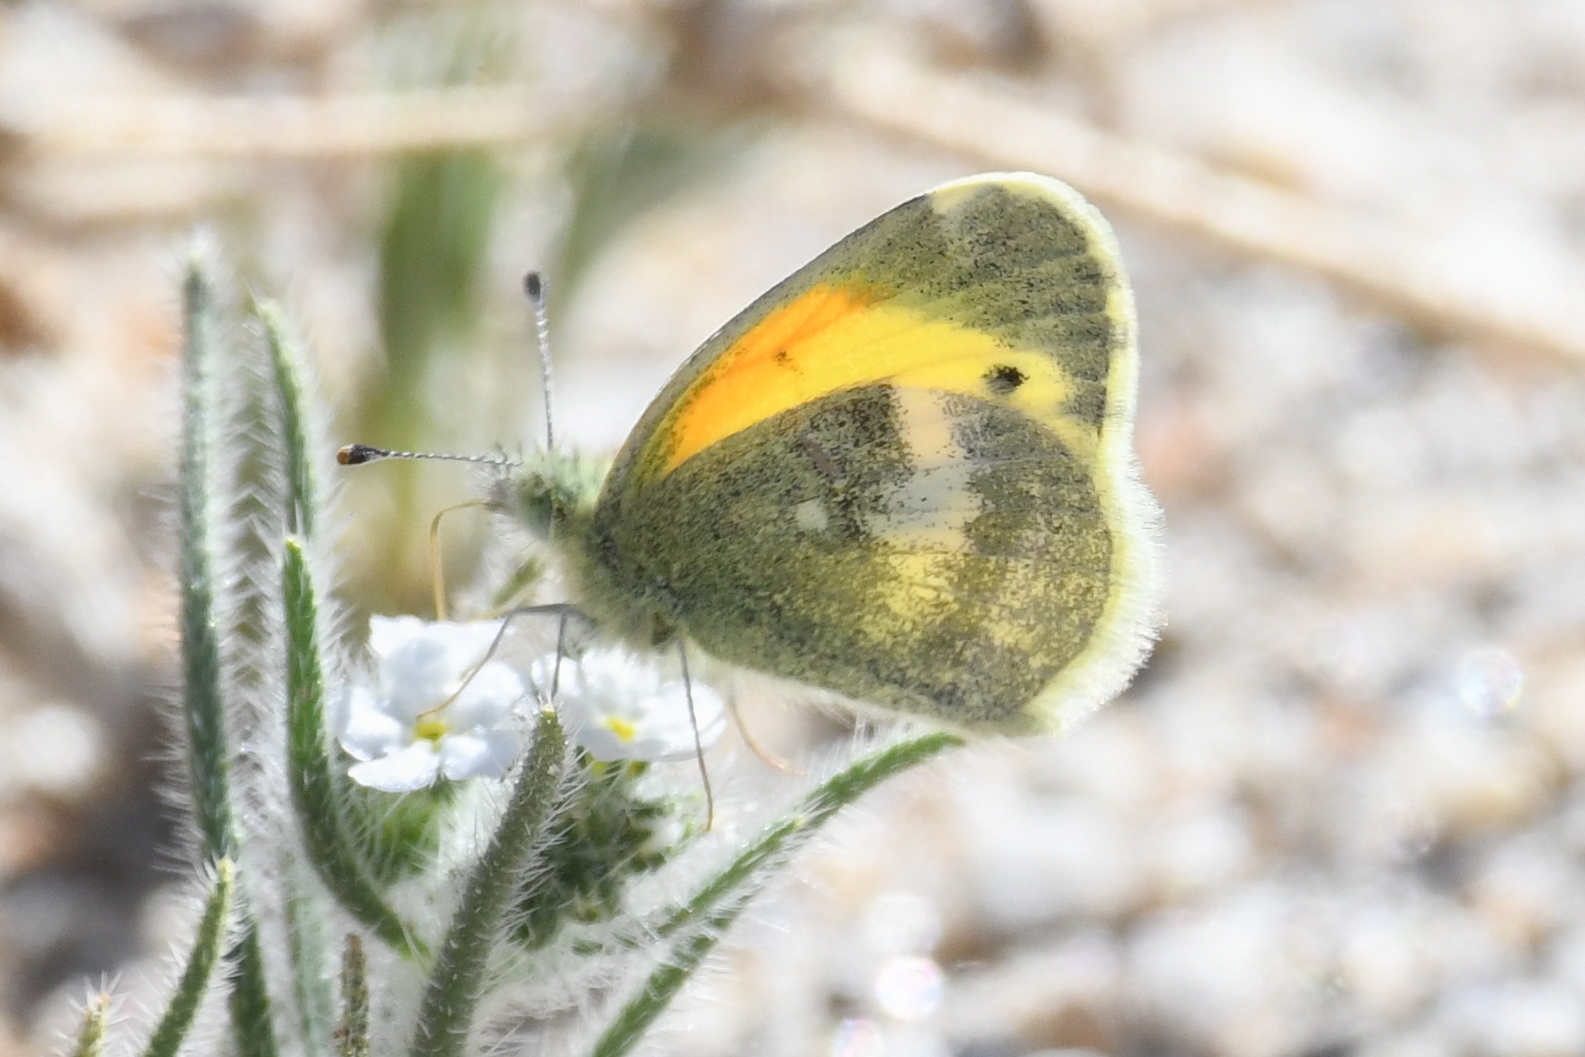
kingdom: Animalia
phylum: Arthropoda
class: Insecta
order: Lepidoptera
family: Pieridae
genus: Nathalis
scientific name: Nathalis iole
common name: Dainty sulphur
